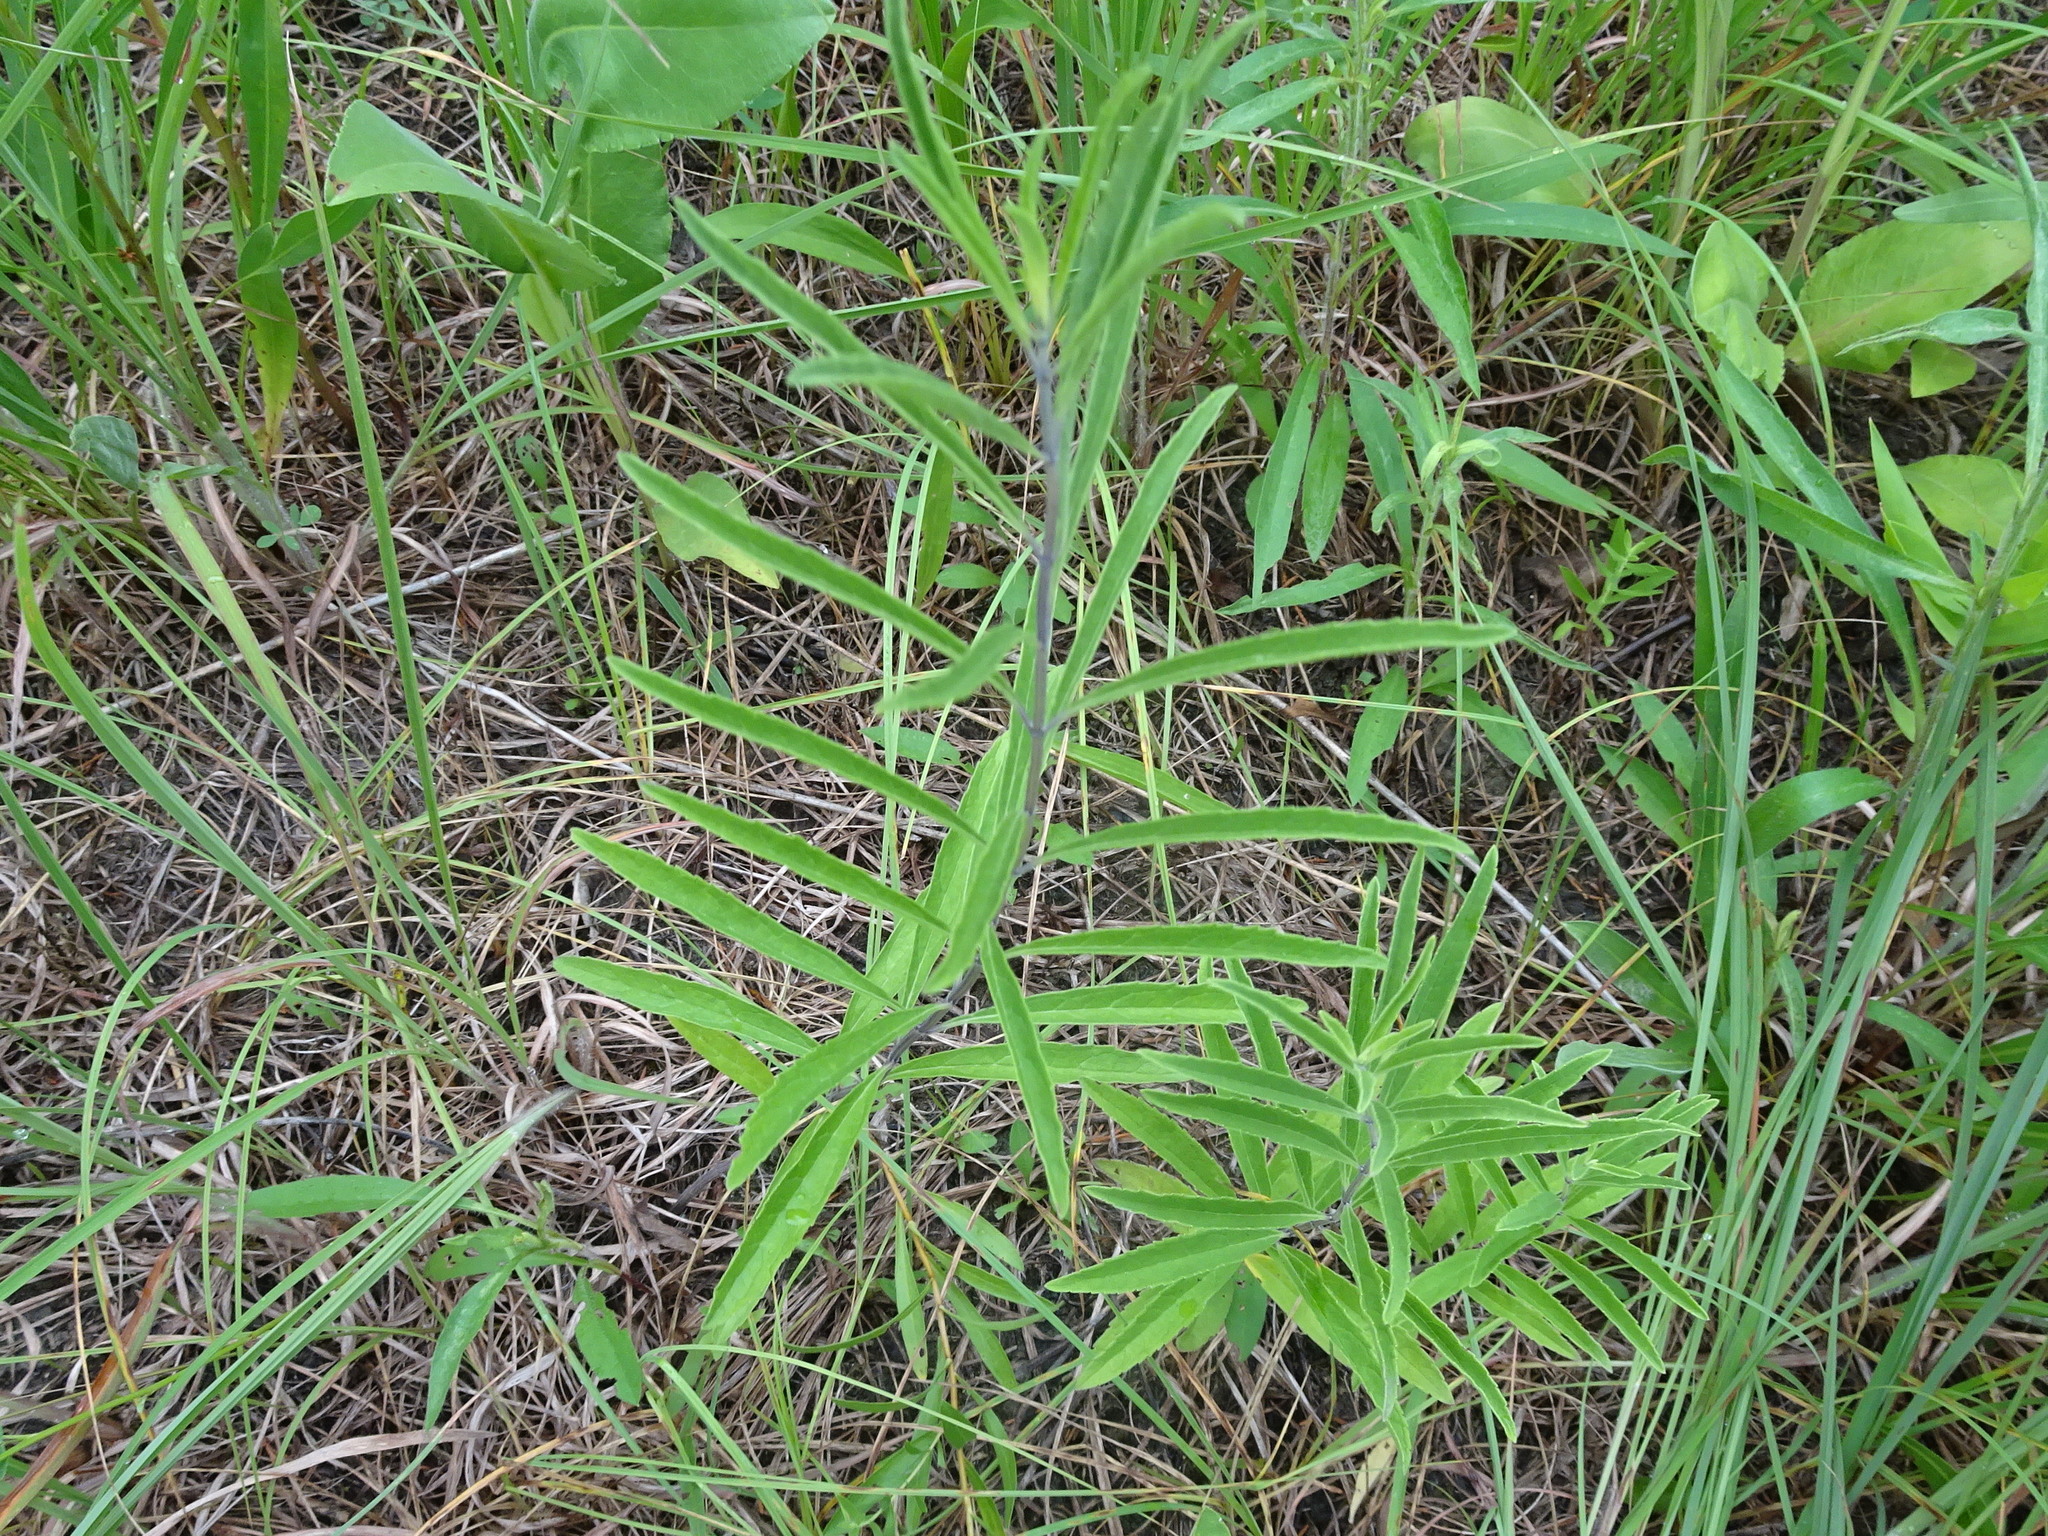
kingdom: Plantae
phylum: Tracheophyta
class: Magnoliopsida
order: Lamiales
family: Lamiaceae
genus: Salvia
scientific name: Salvia azurea
